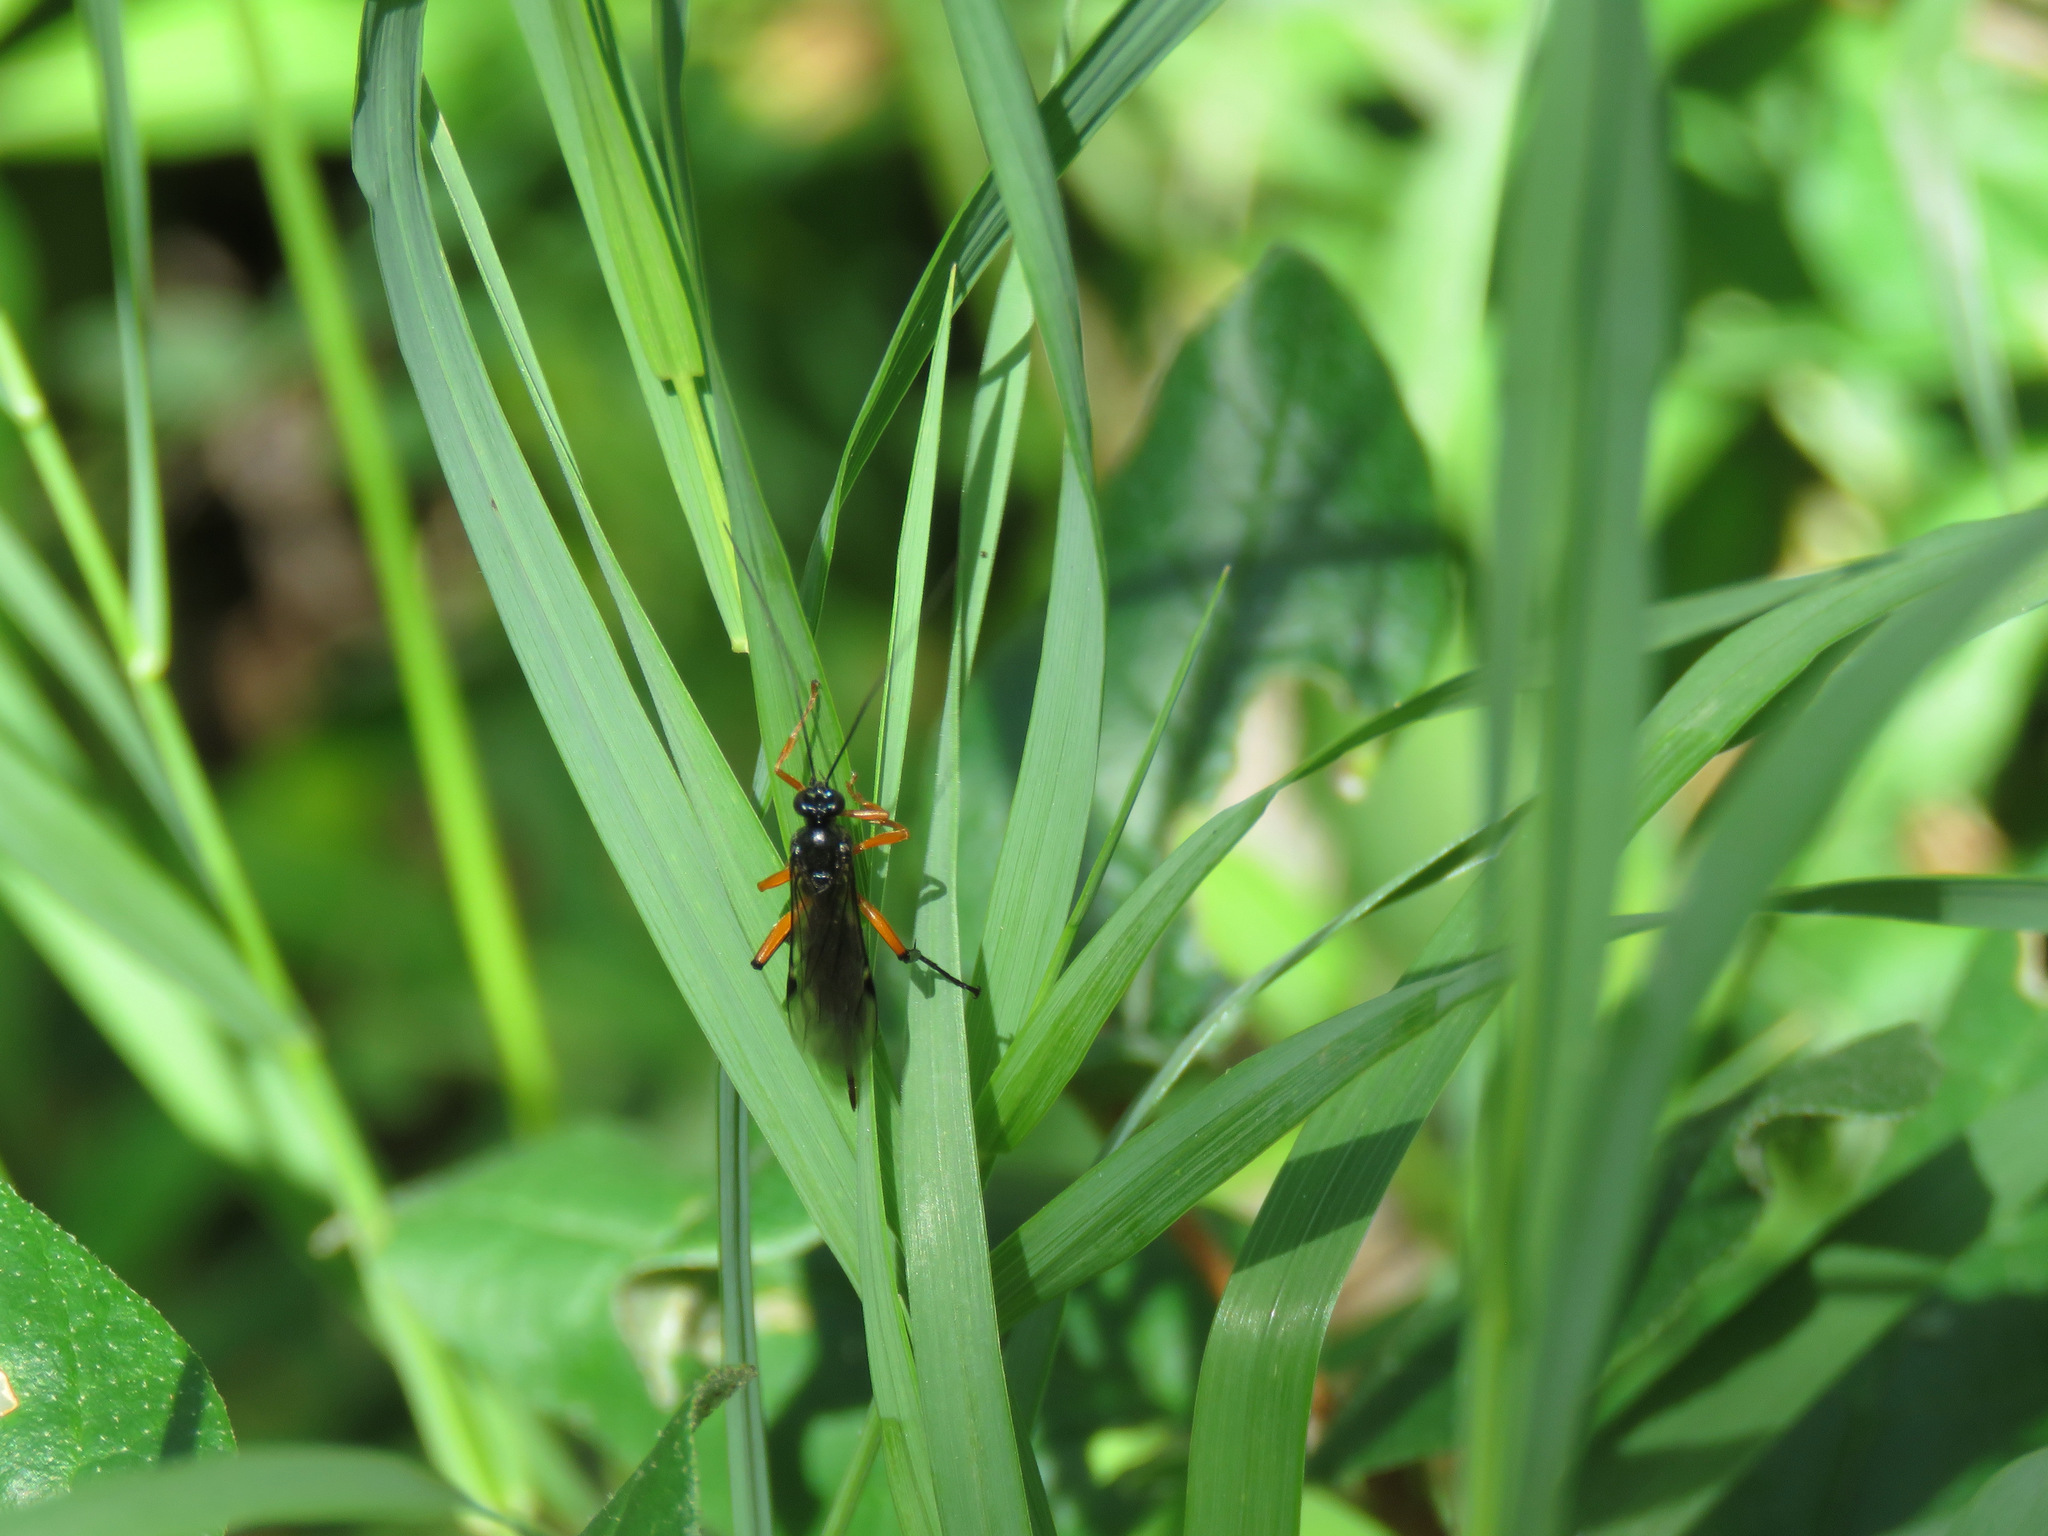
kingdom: Animalia
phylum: Arthropoda
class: Insecta
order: Hymenoptera
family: Ichneumonidae
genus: Pimpla
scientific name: Pimpla pedalis
